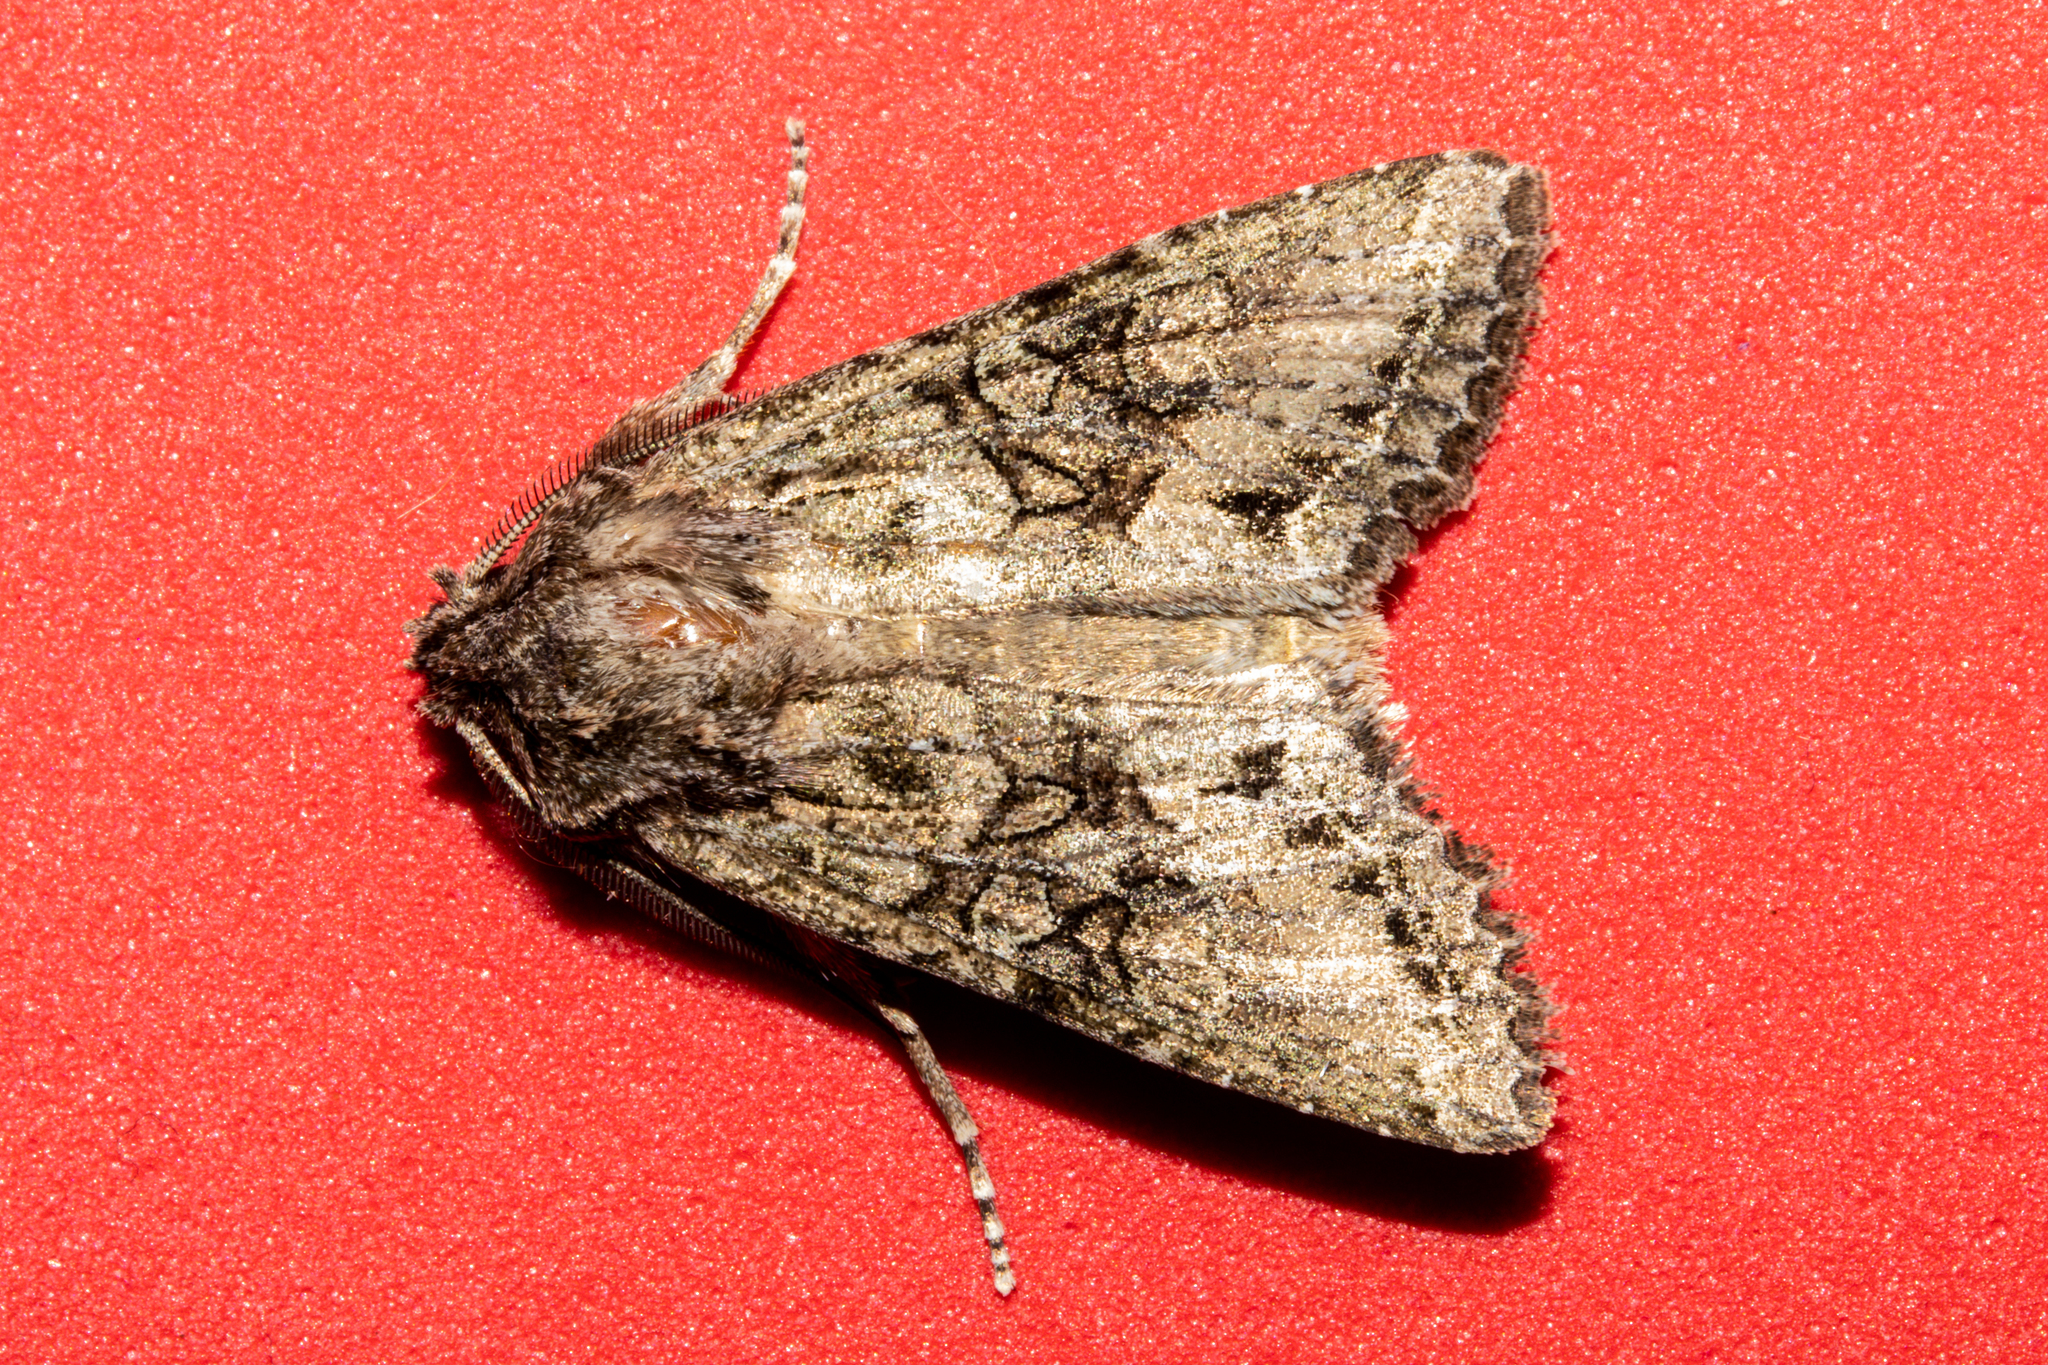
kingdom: Animalia
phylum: Arthropoda
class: Insecta
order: Lepidoptera
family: Noctuidae
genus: Ichneutica
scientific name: Ichneutica mutans
